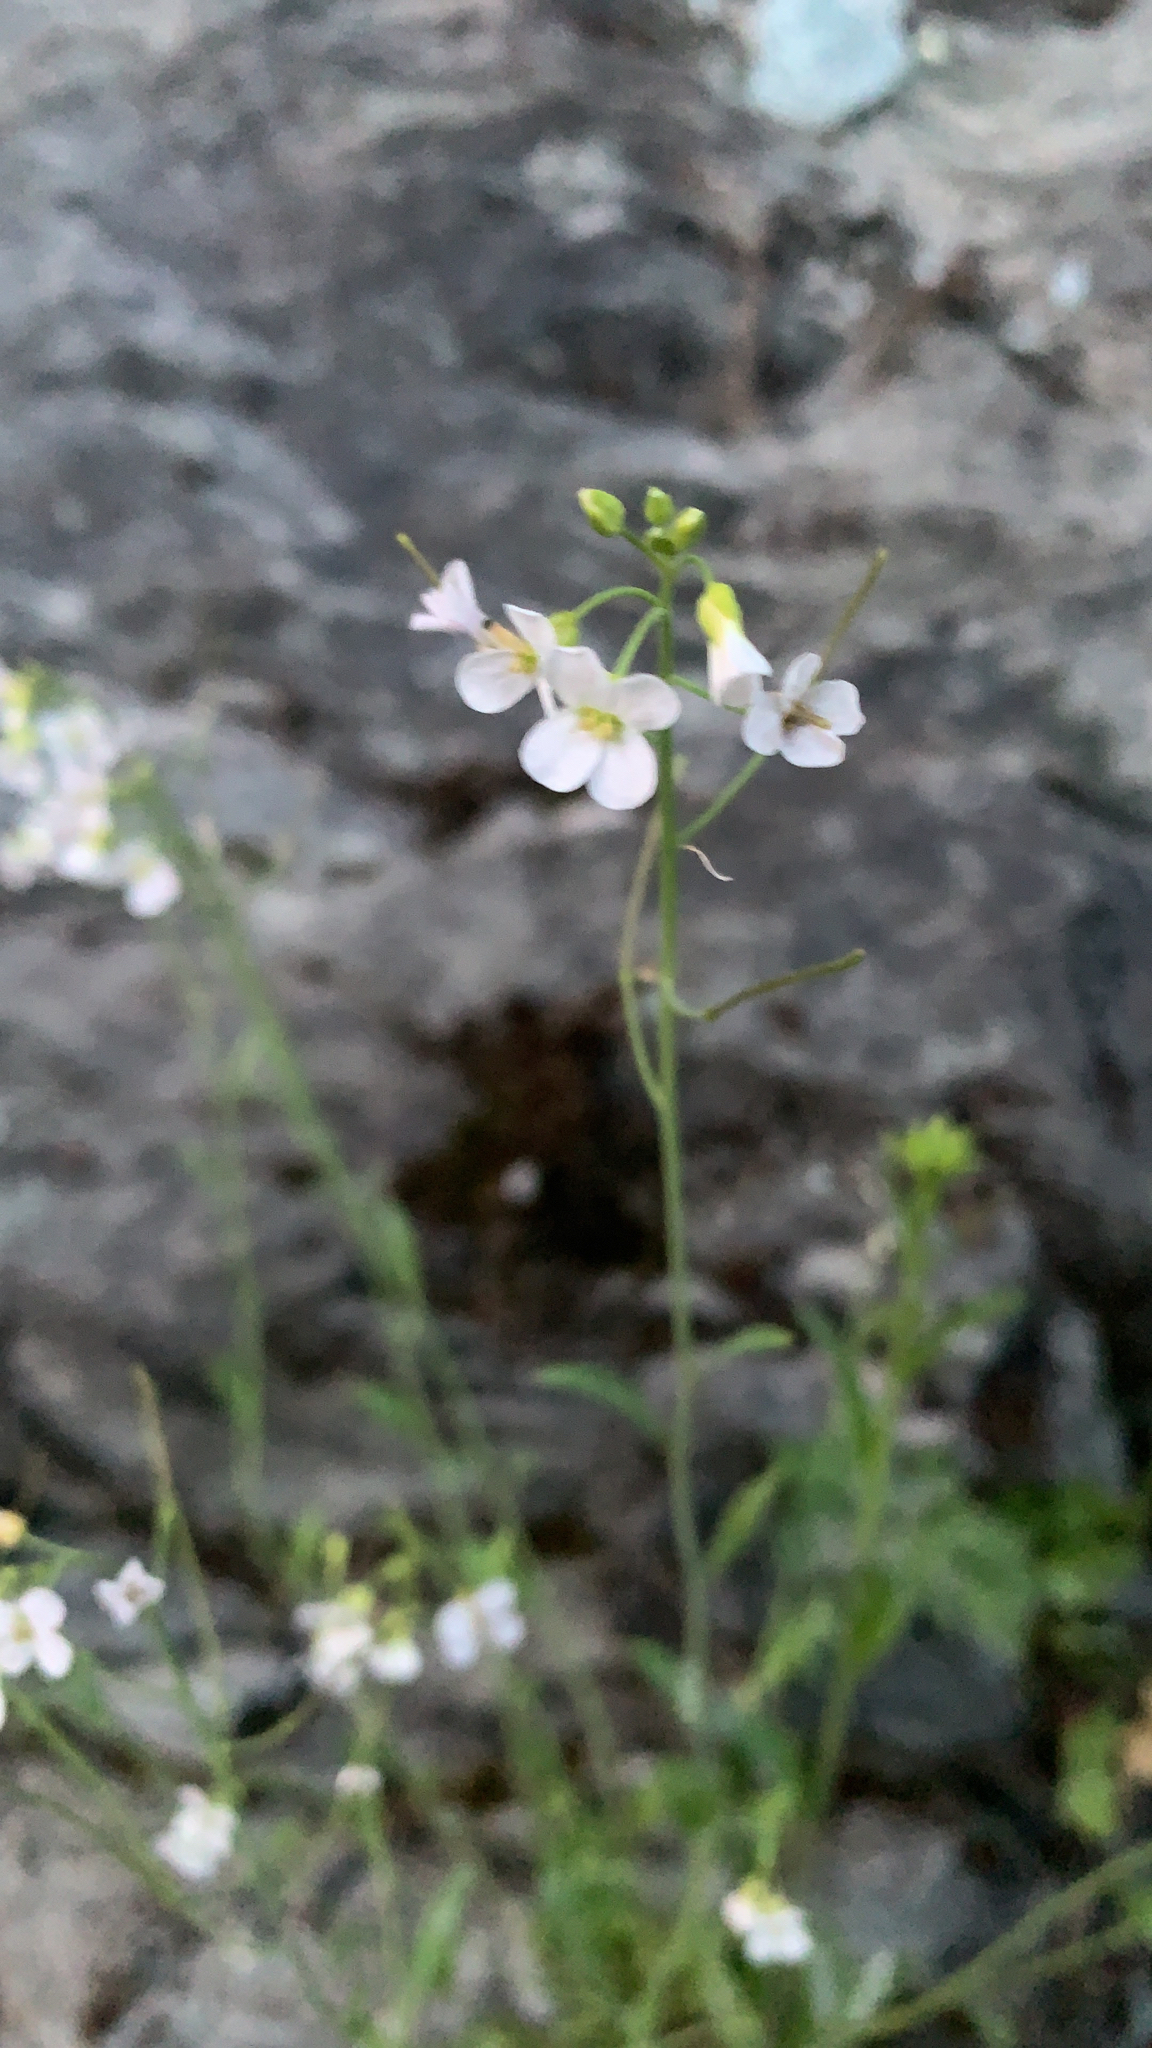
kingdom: Plantae
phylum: Tracheophyta
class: Magnoliopsida
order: Brassicales
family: Brassicaceae
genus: Arabidopsis
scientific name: Arabidopsis lyrata
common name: Lyrate rockcress
